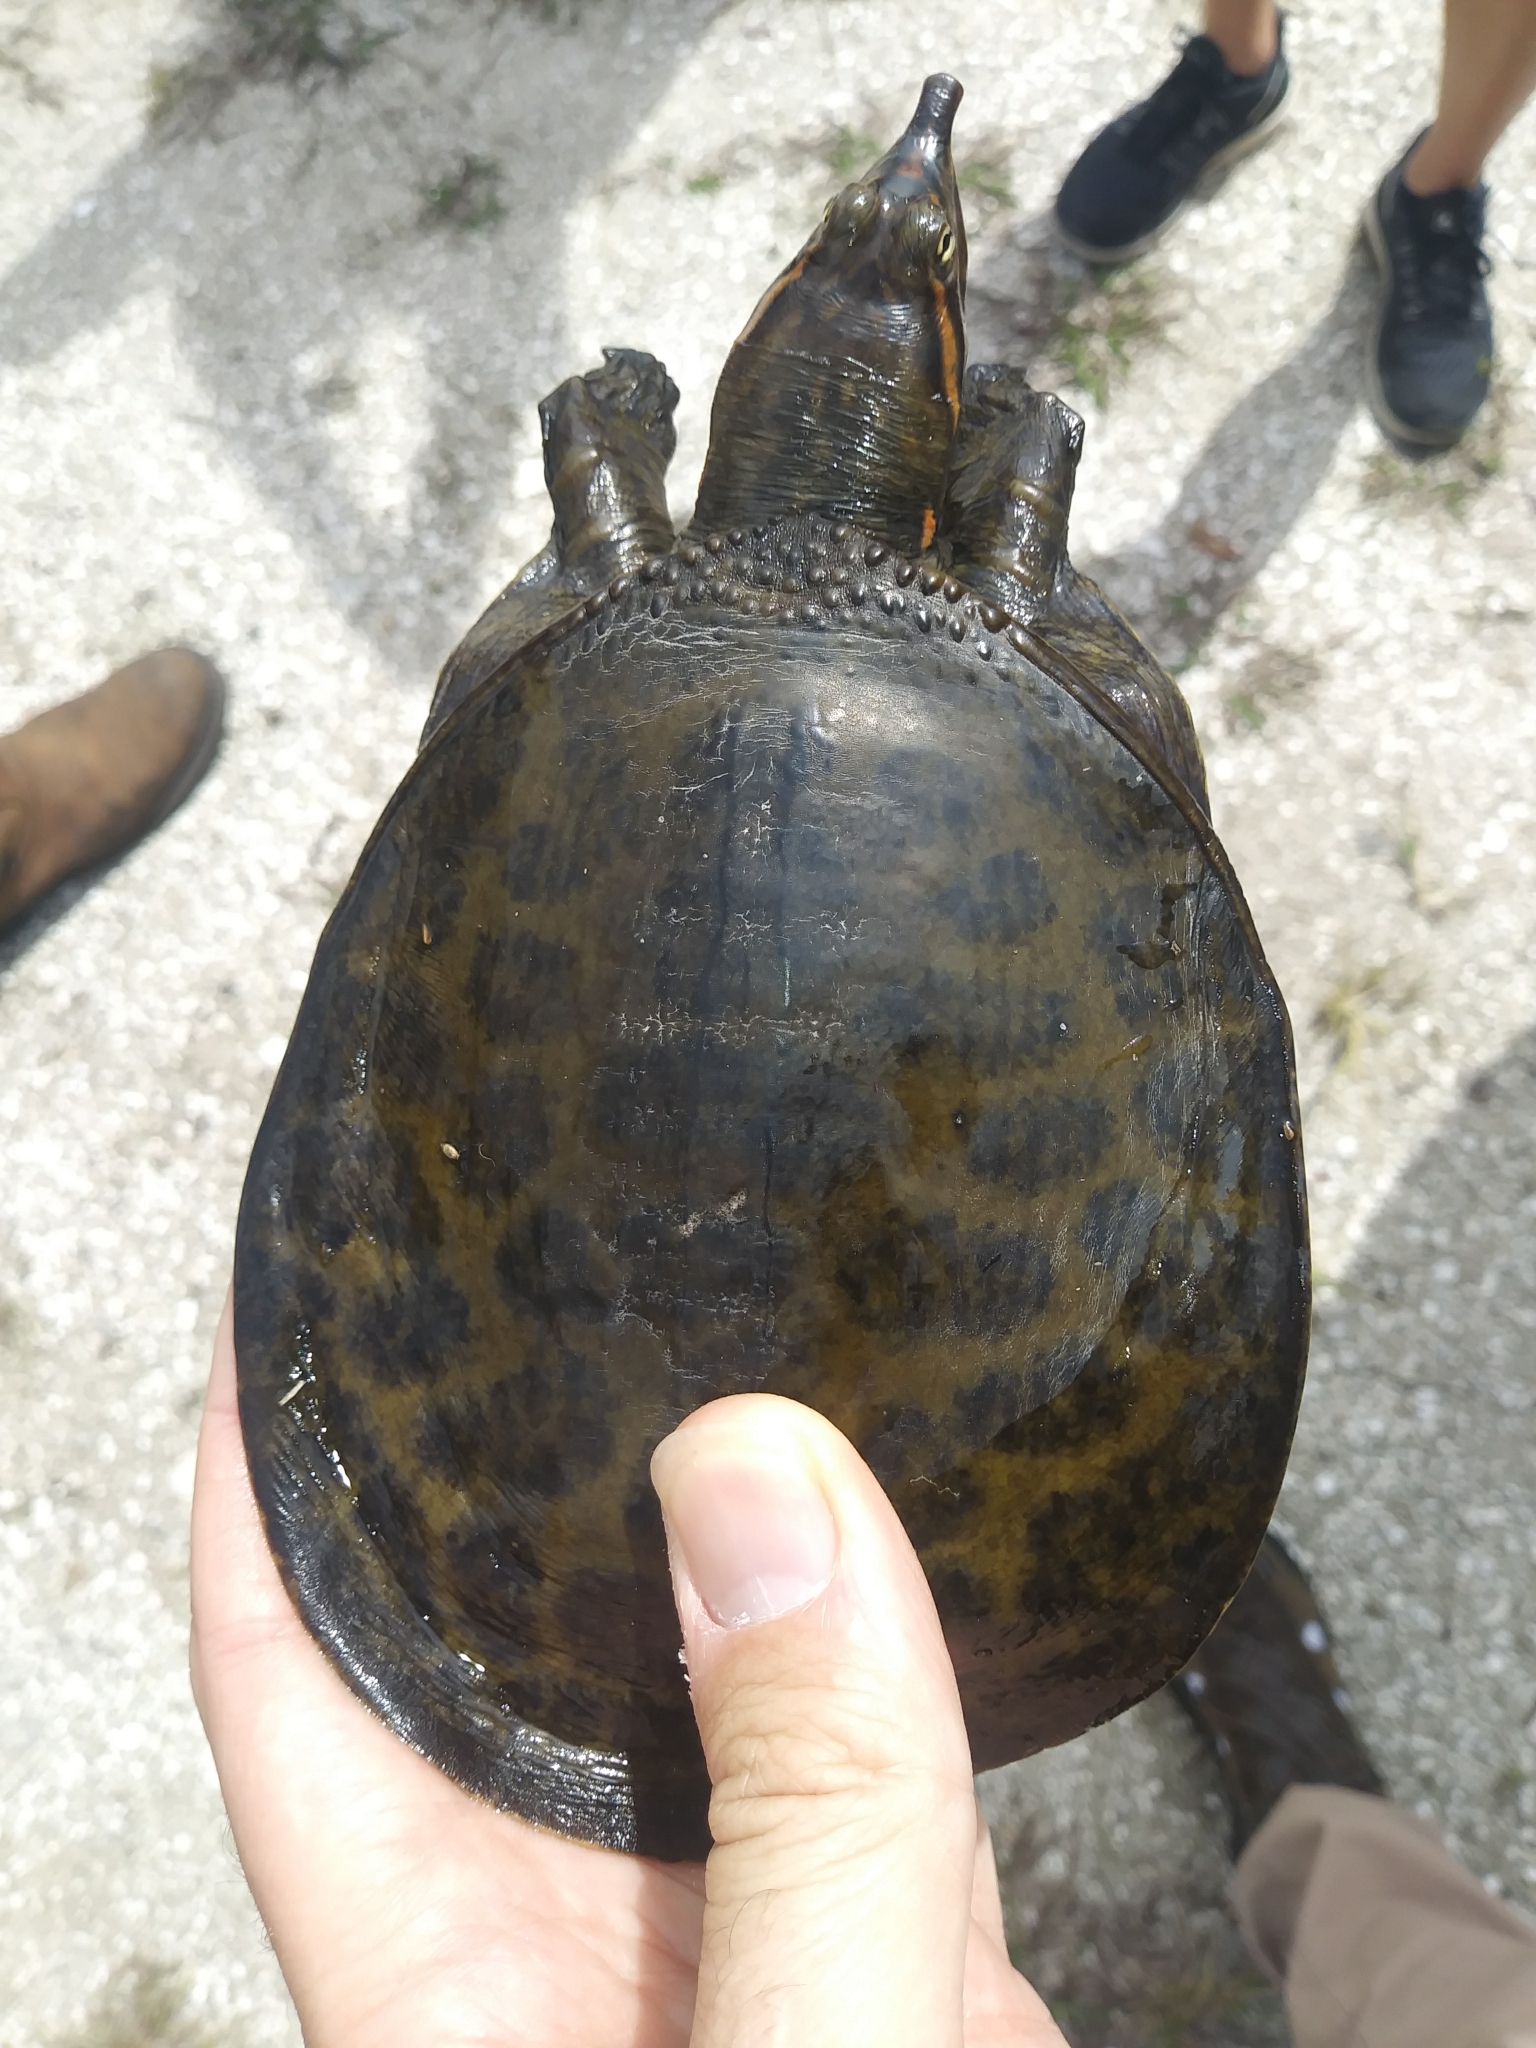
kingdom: Animalia
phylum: Chordata
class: Testudines
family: Trionychidae
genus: Apalone
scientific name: Apalone ferox
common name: Florida softshell turtle
